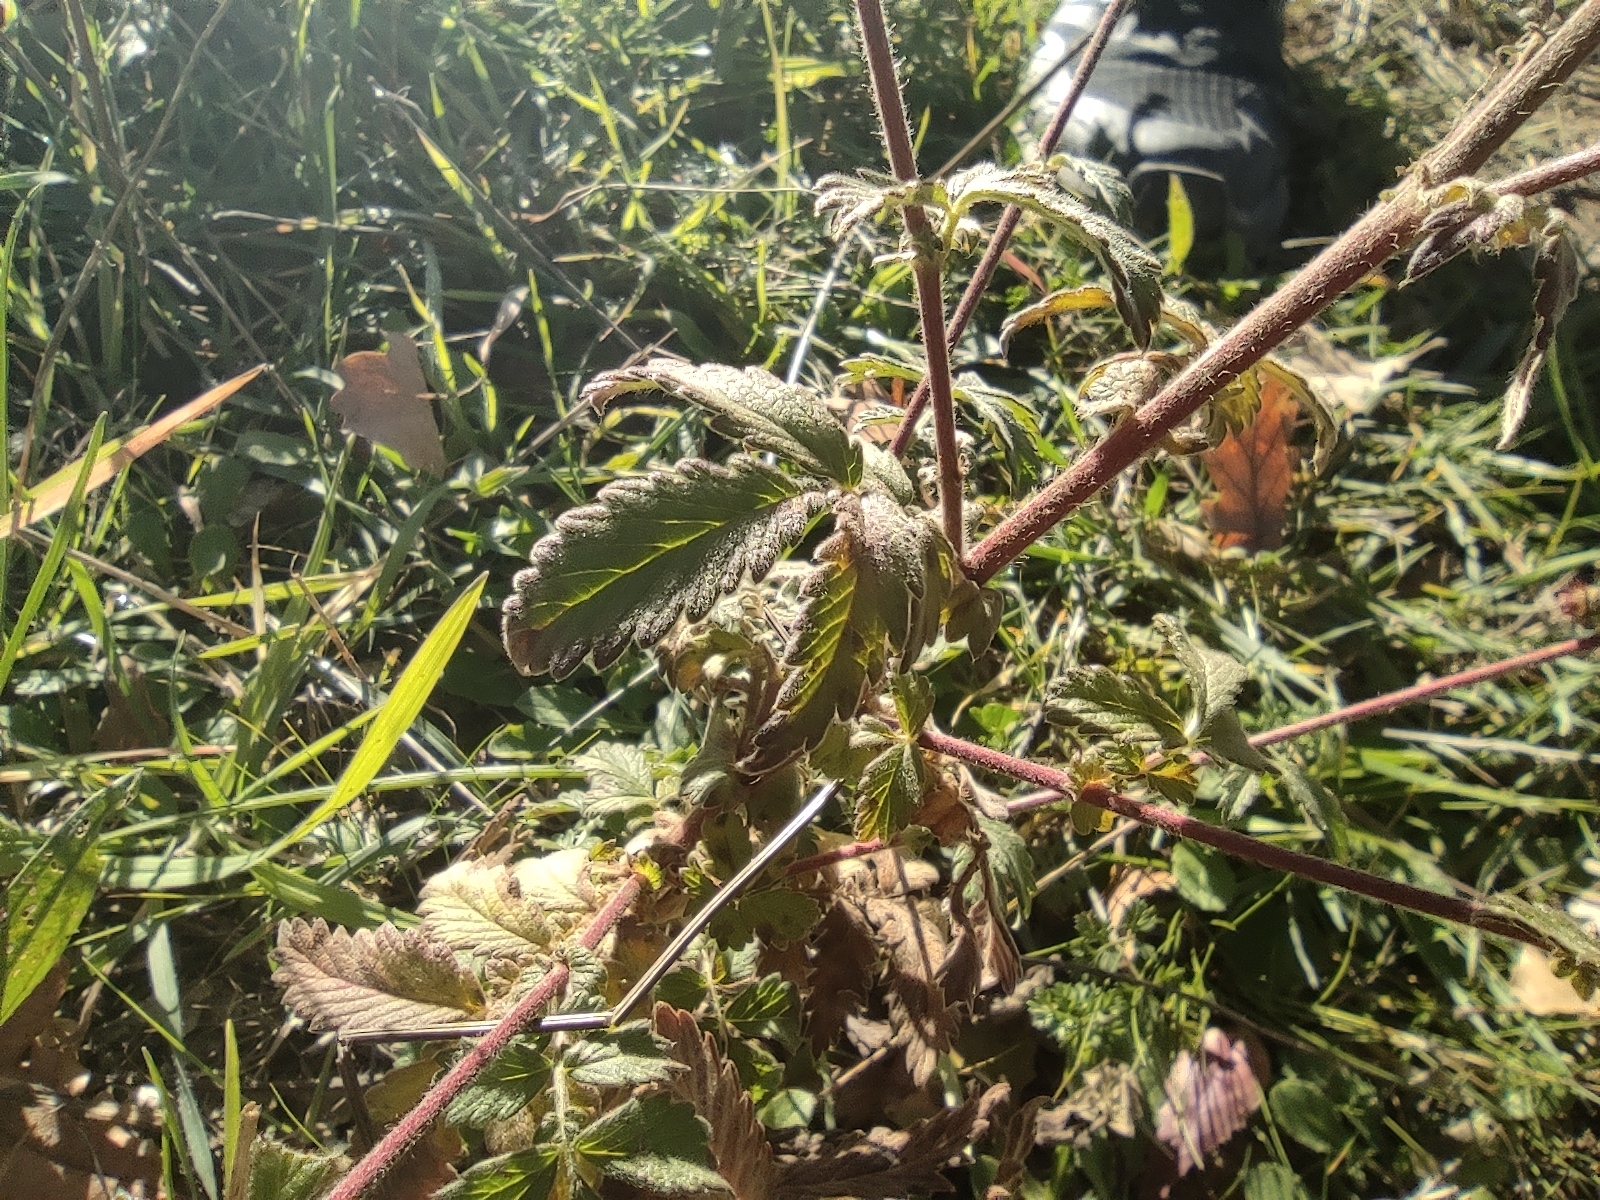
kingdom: Plantae
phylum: Tracheophyta
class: Magnoliopsida
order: Rosales
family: Rosaceae
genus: Agrimonia
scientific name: Agrimonia eupatoria
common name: Agrimony
